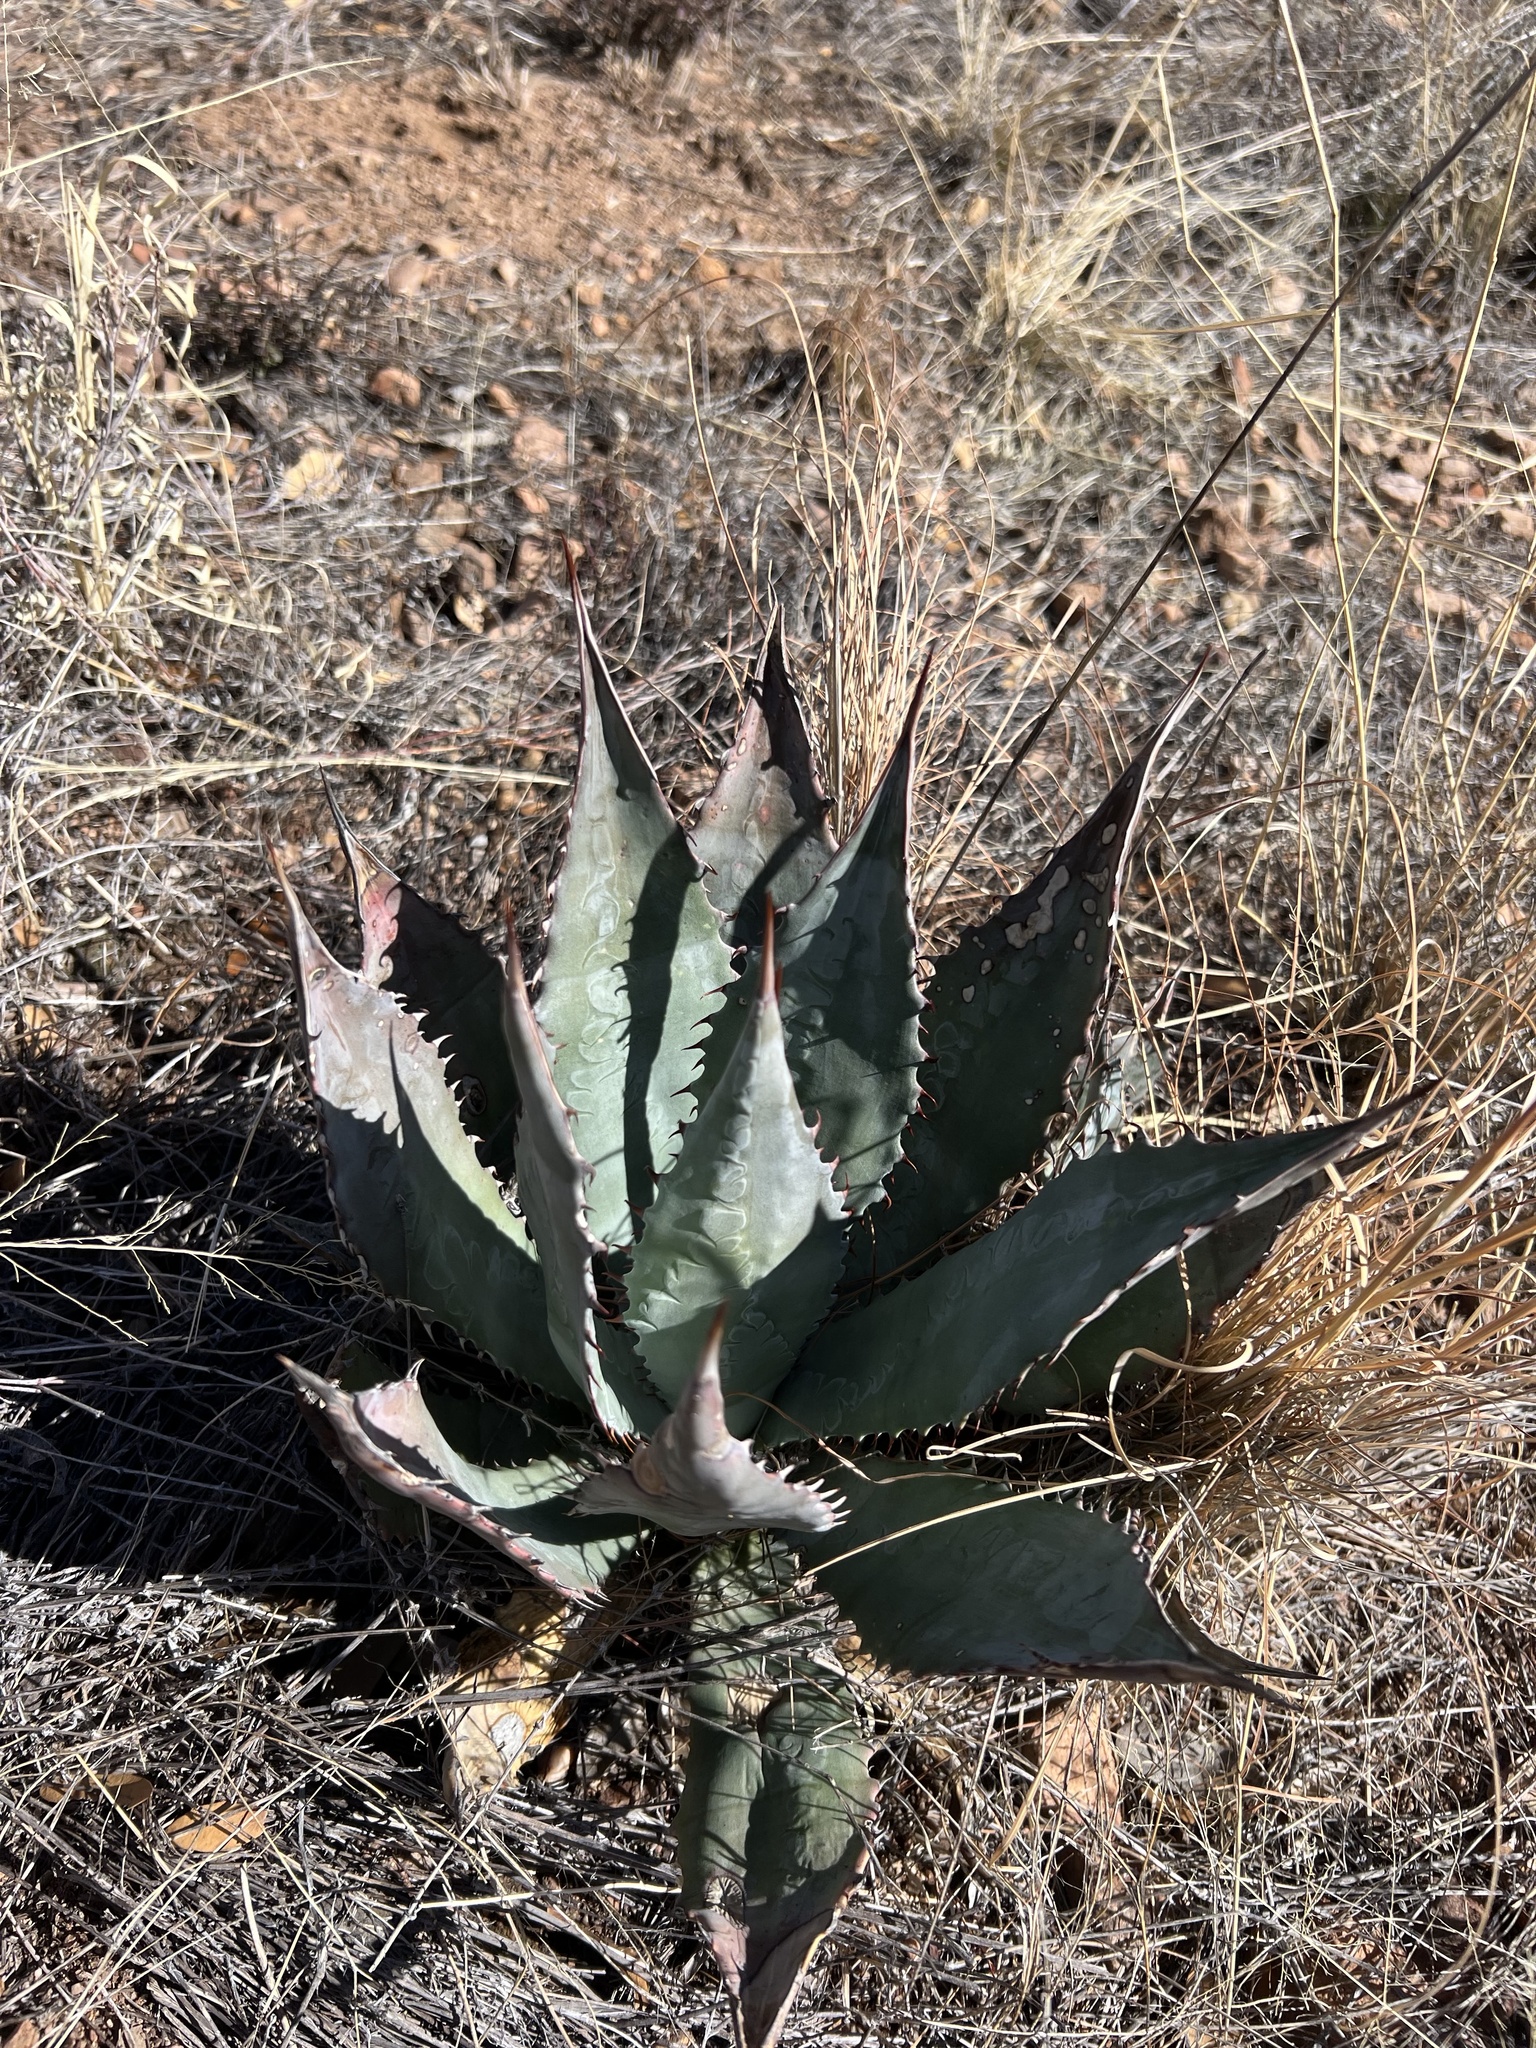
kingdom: Plantae
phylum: Tracheophyta
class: Liliopsida
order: Asparagales
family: Asparagaceae
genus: Agave
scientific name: Agave parryi
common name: Parry's agave
